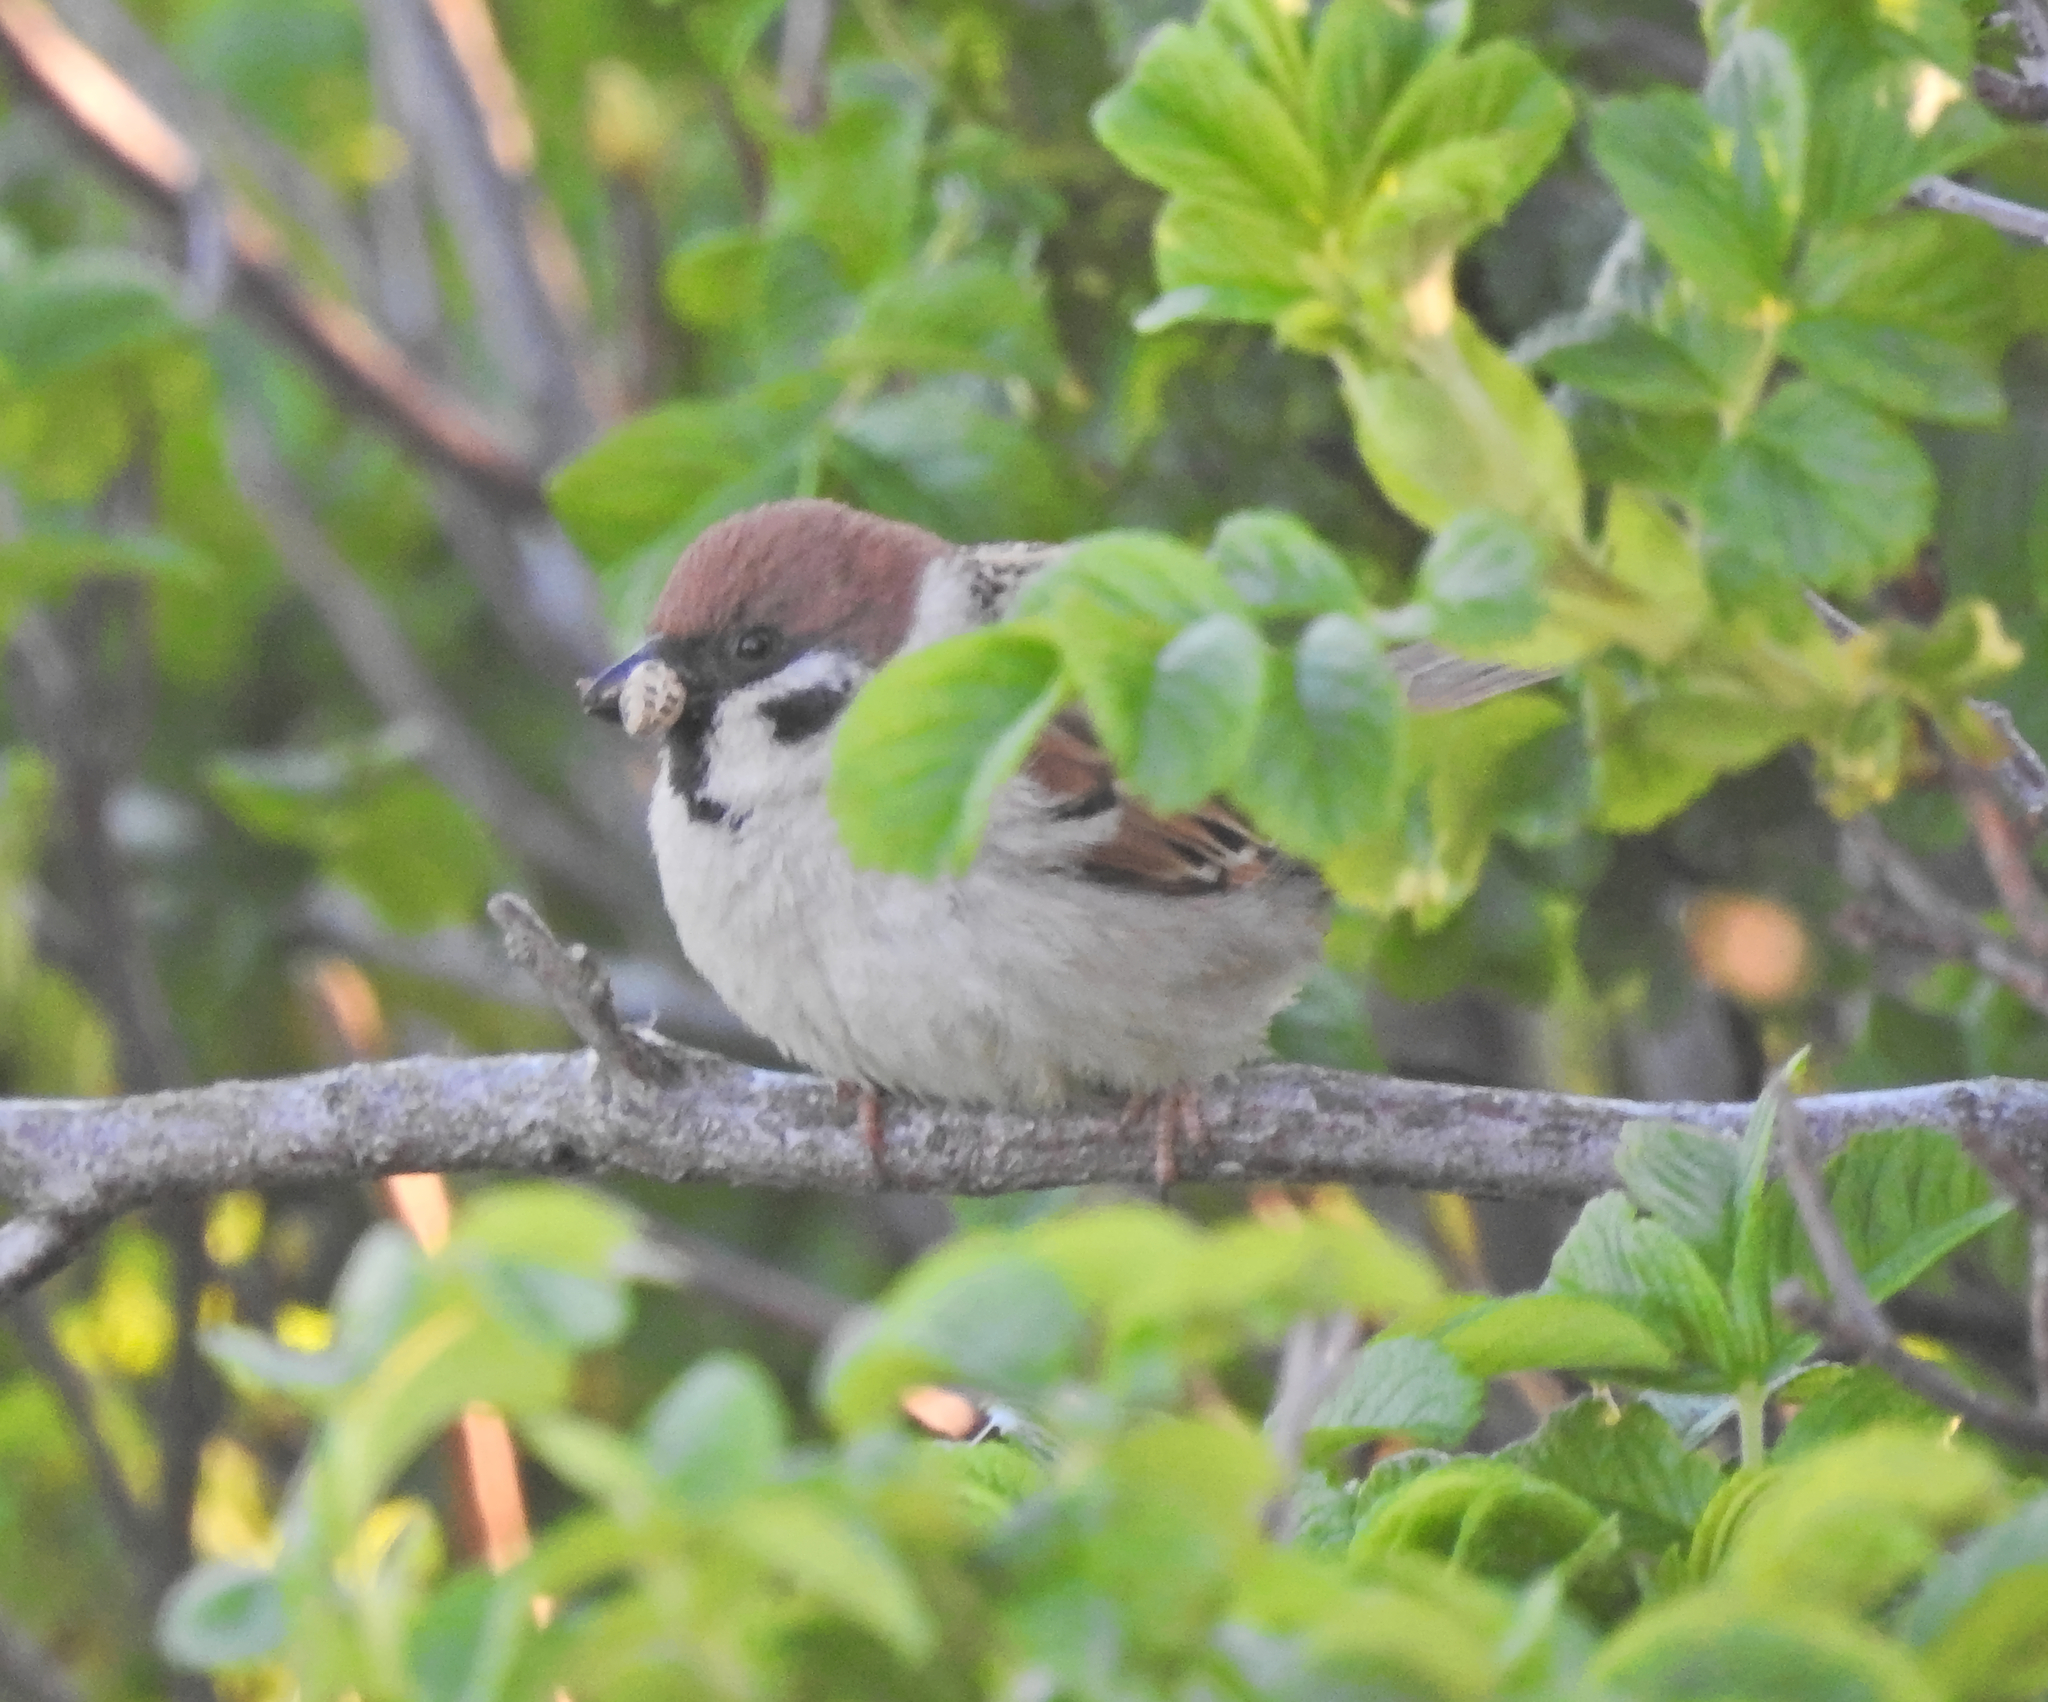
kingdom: Animalia
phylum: Chordata
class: Aves
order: Passeriformes
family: Passeridae
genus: Passer
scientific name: Passer montanus
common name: Eurasian tree sparrow
